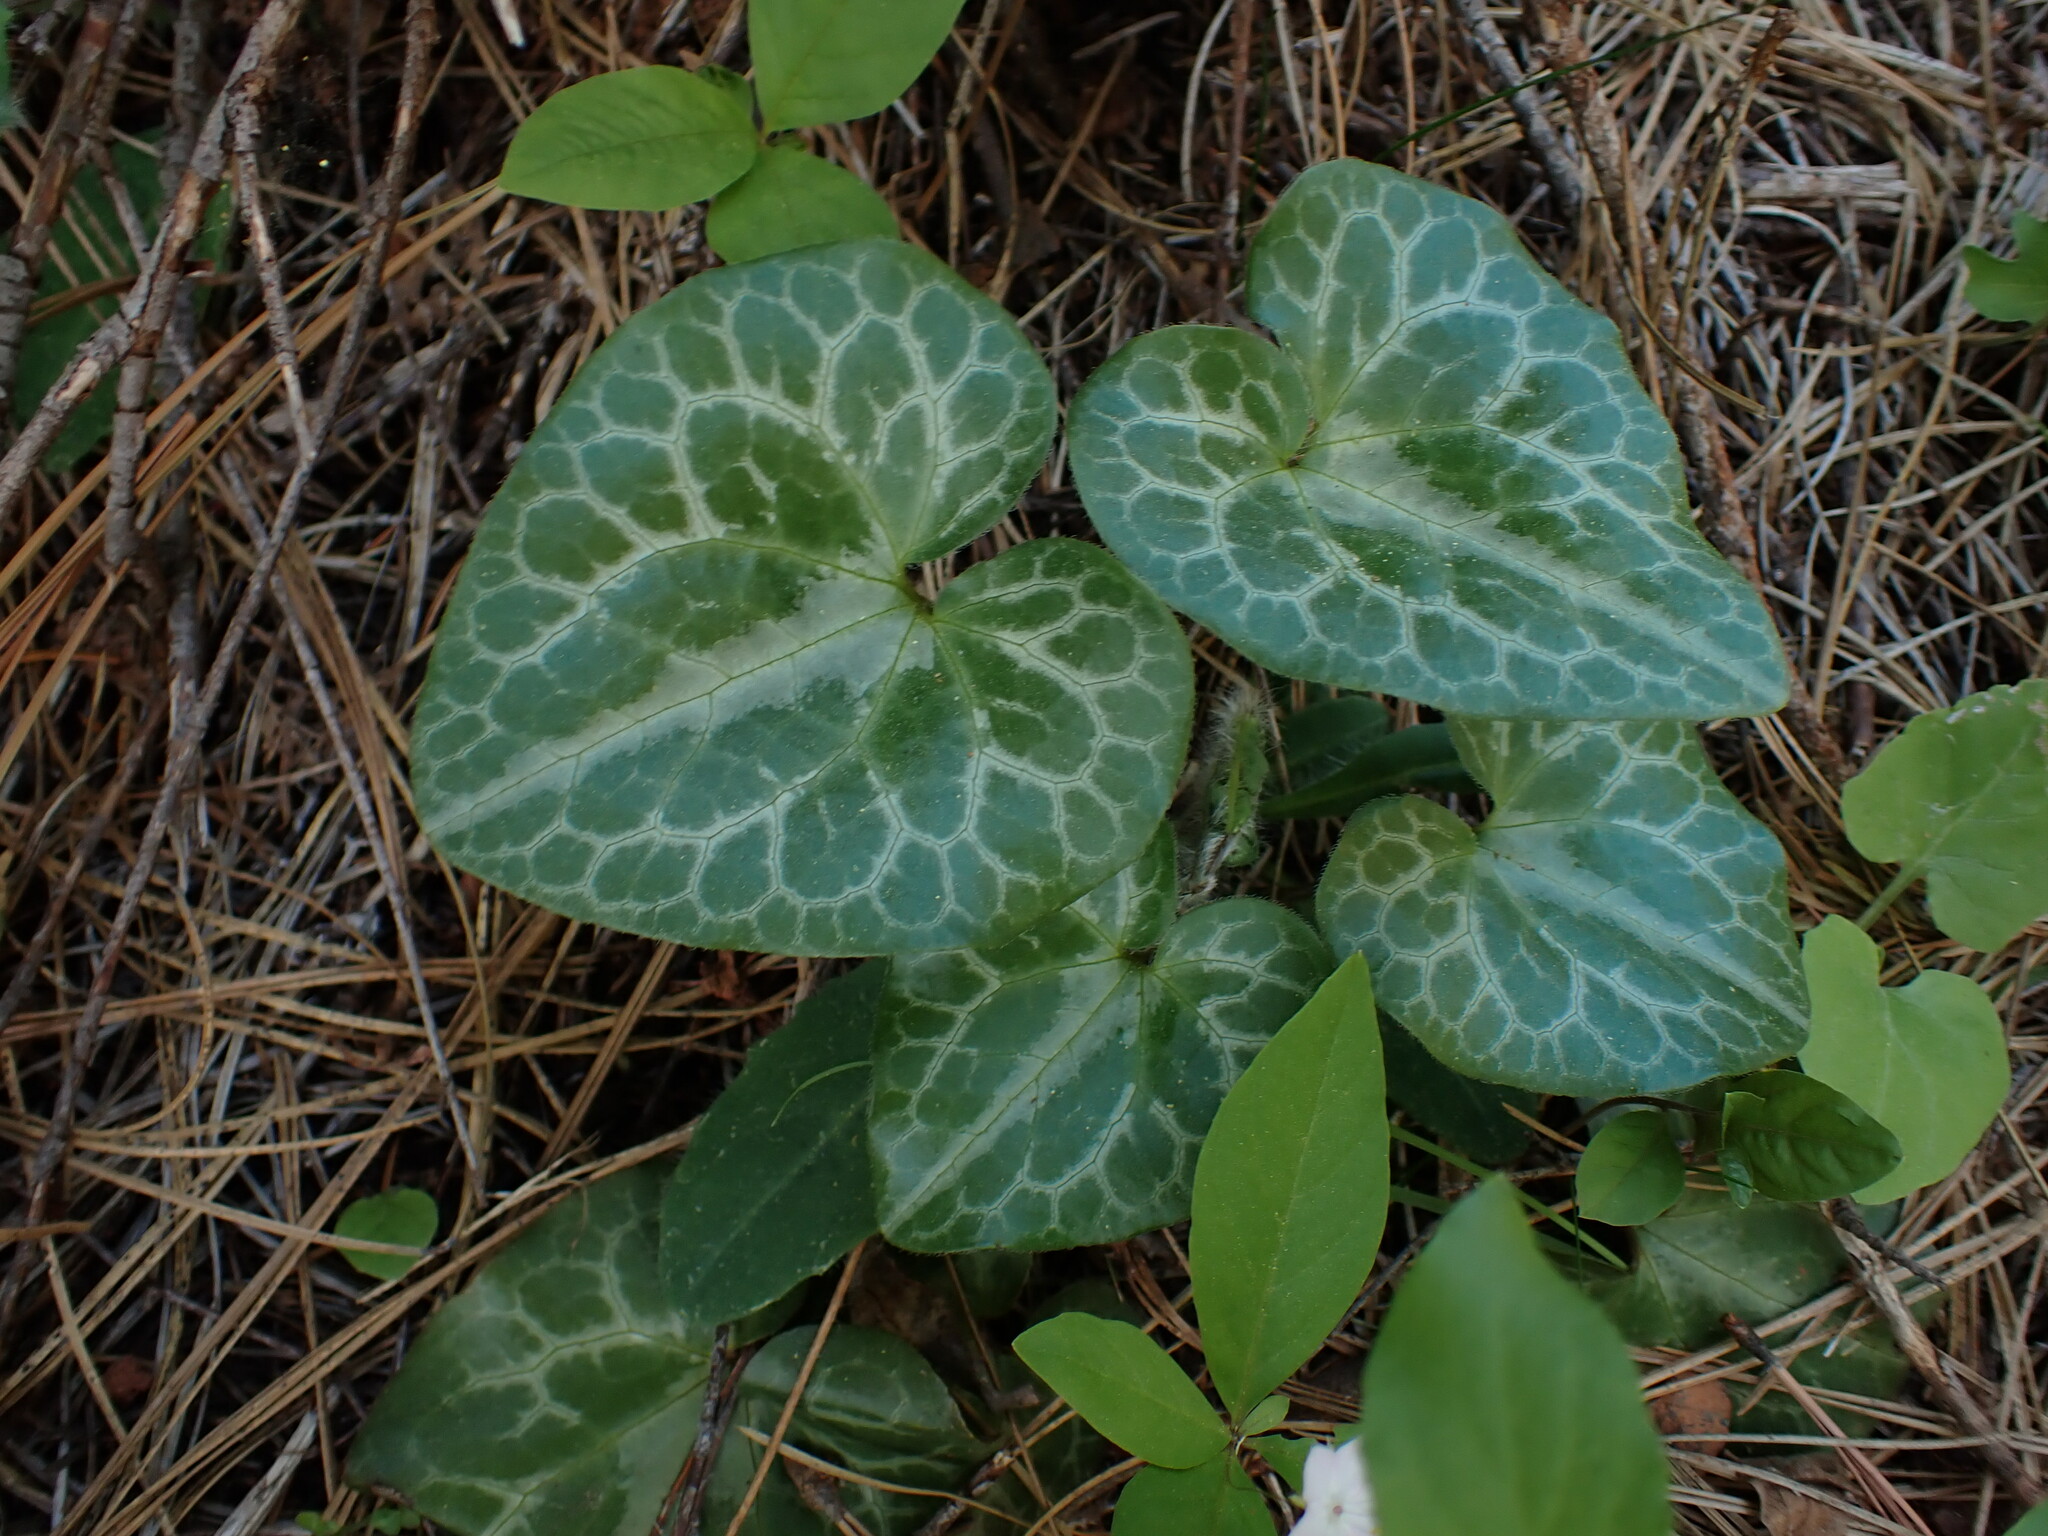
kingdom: Plantae
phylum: Tracheophyta
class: Magnoliopsida
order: Piperales
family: Aristolochiaceae
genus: Asarum
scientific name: Asarum hartwegii
